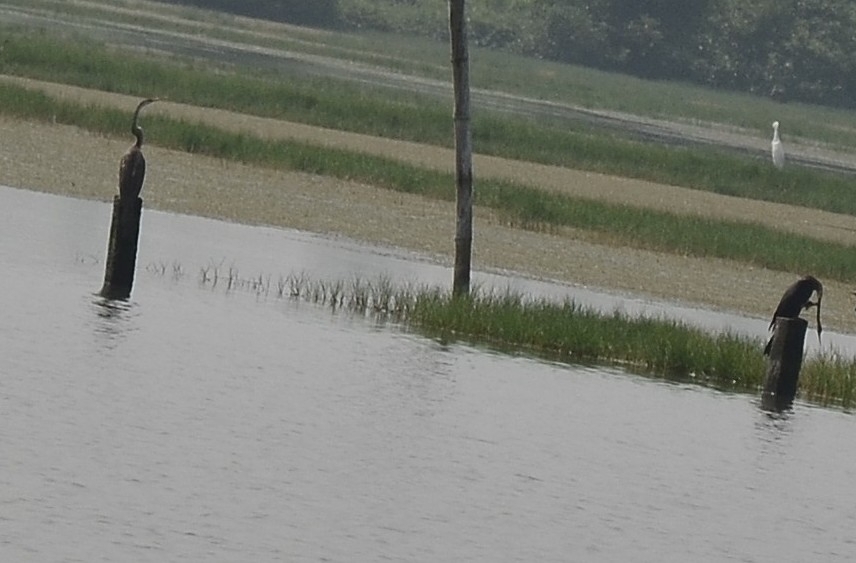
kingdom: Animalia
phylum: Chordata
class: Aves
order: Suliformes
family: Anhingidae
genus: Anhinga
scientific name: Anhinga melanogaster
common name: Oriental darter
